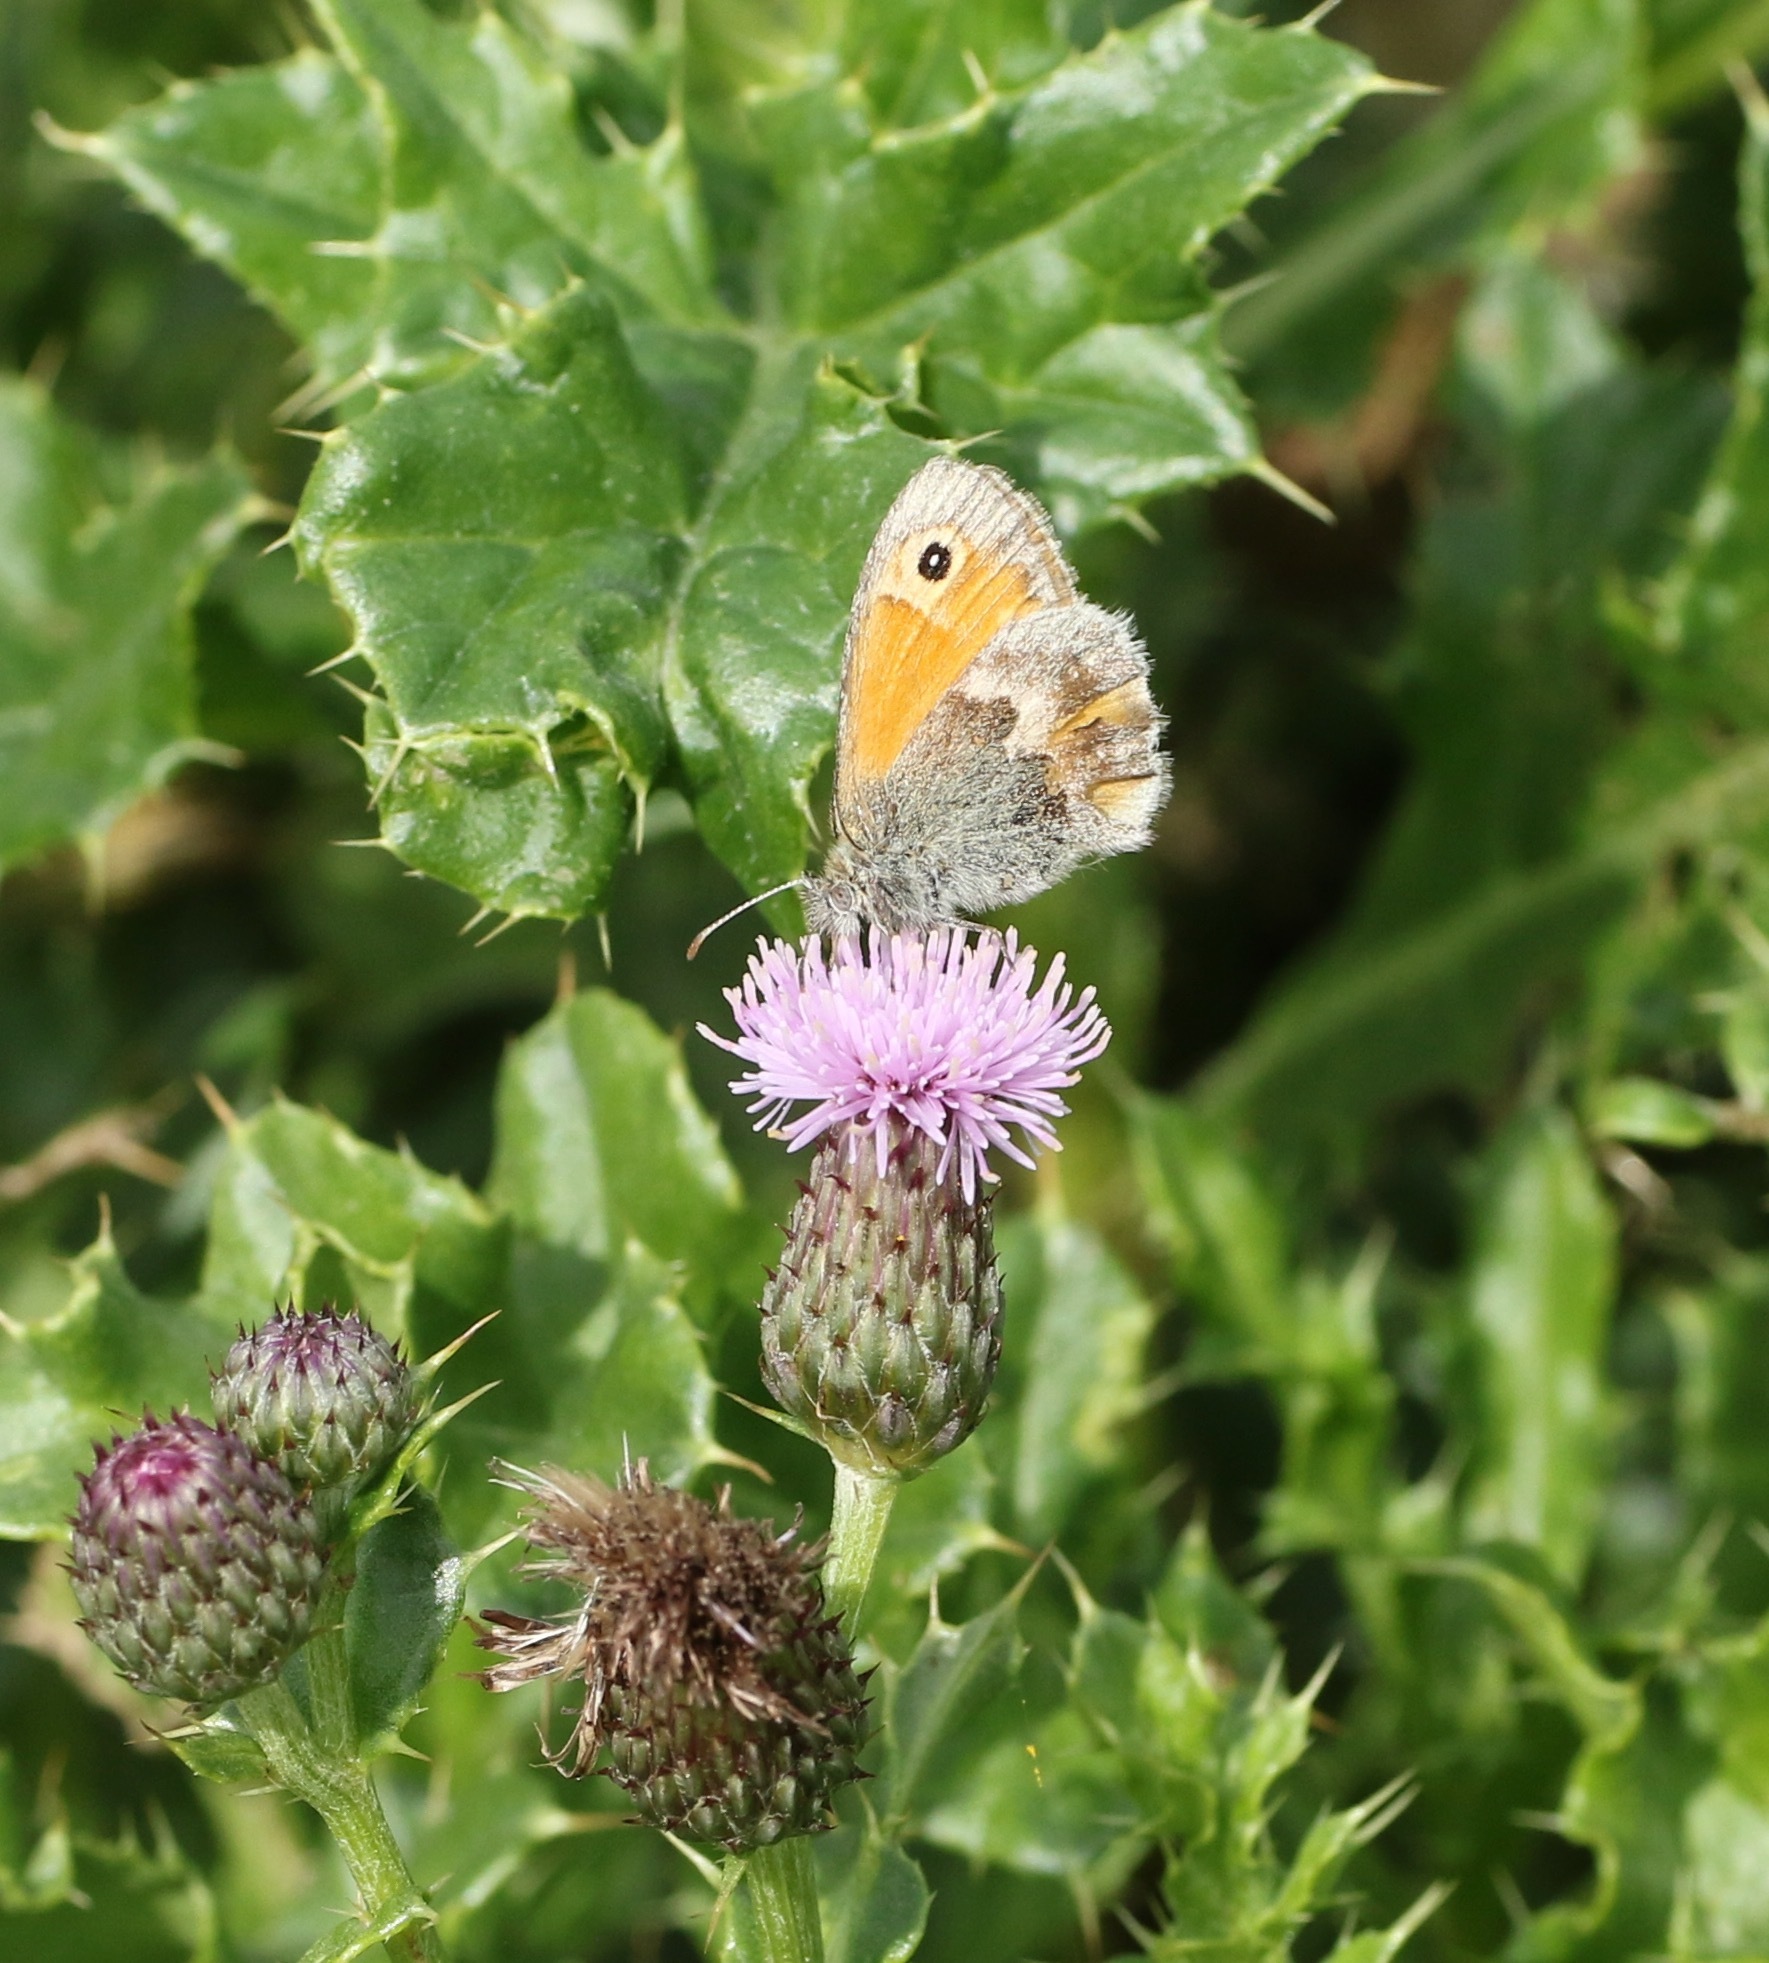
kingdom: Animalia
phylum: Arthropoda
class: Insecta
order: Lepidoptera
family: Nymphalidae
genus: Coenonympha
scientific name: Coenonympha pamphilus
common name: Small heath
